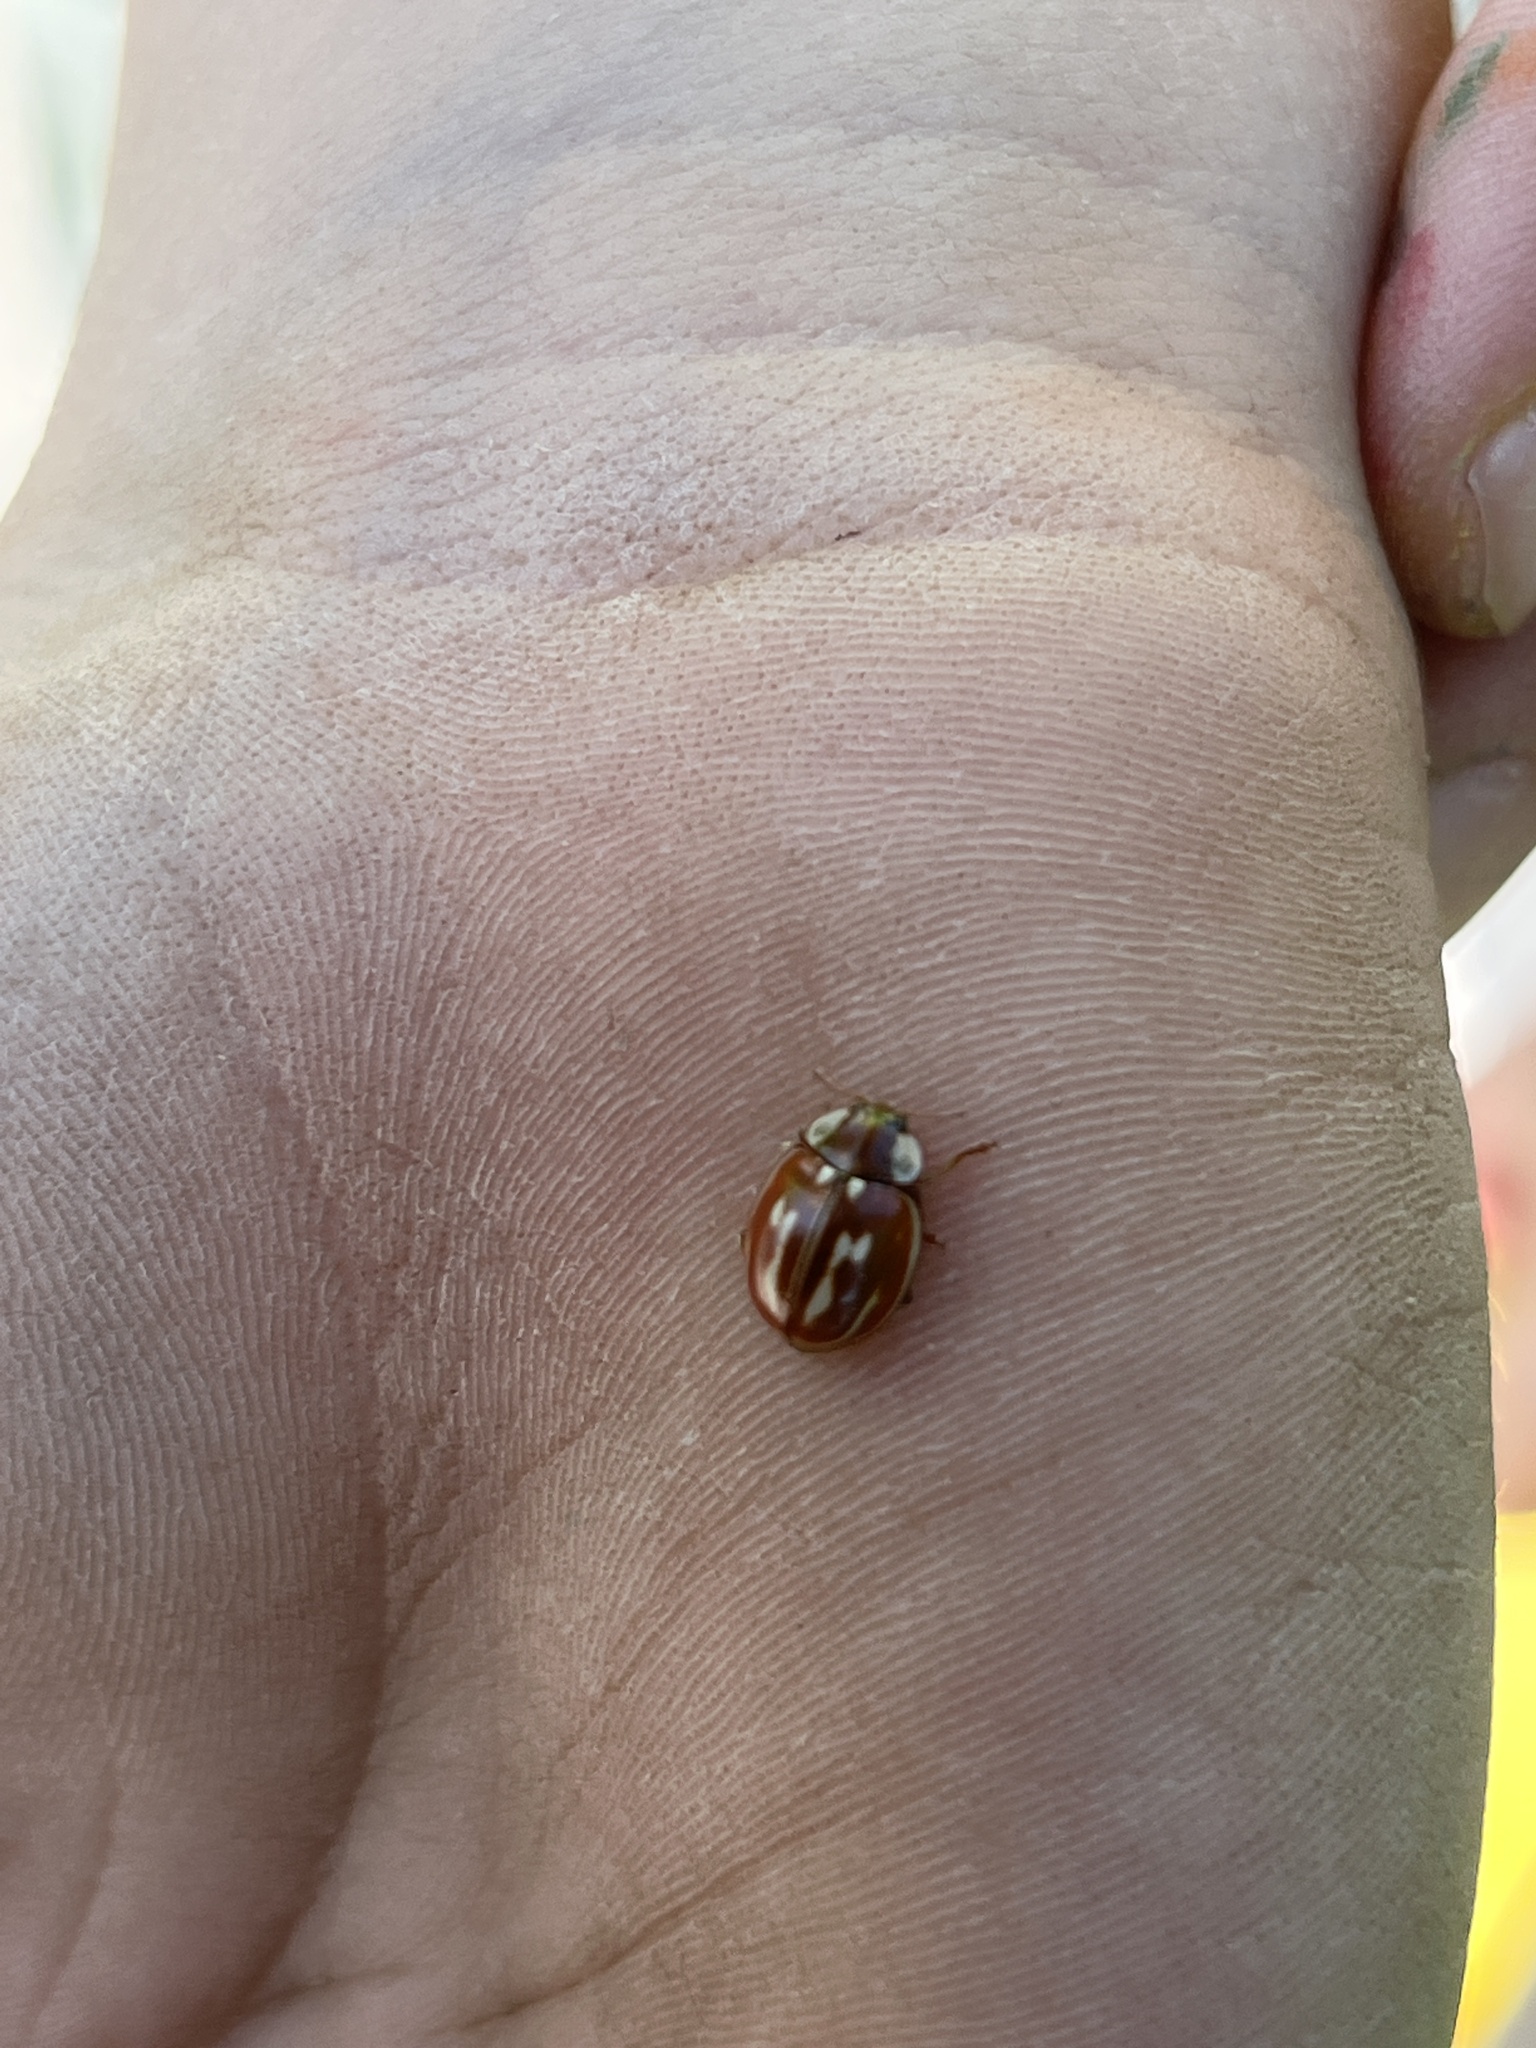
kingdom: Animalia
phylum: Arthropoda
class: Insecta
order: Coleoptera
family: Coccinellidae
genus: Myzia
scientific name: Myzia oblongoguttata
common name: Striped ladybird
